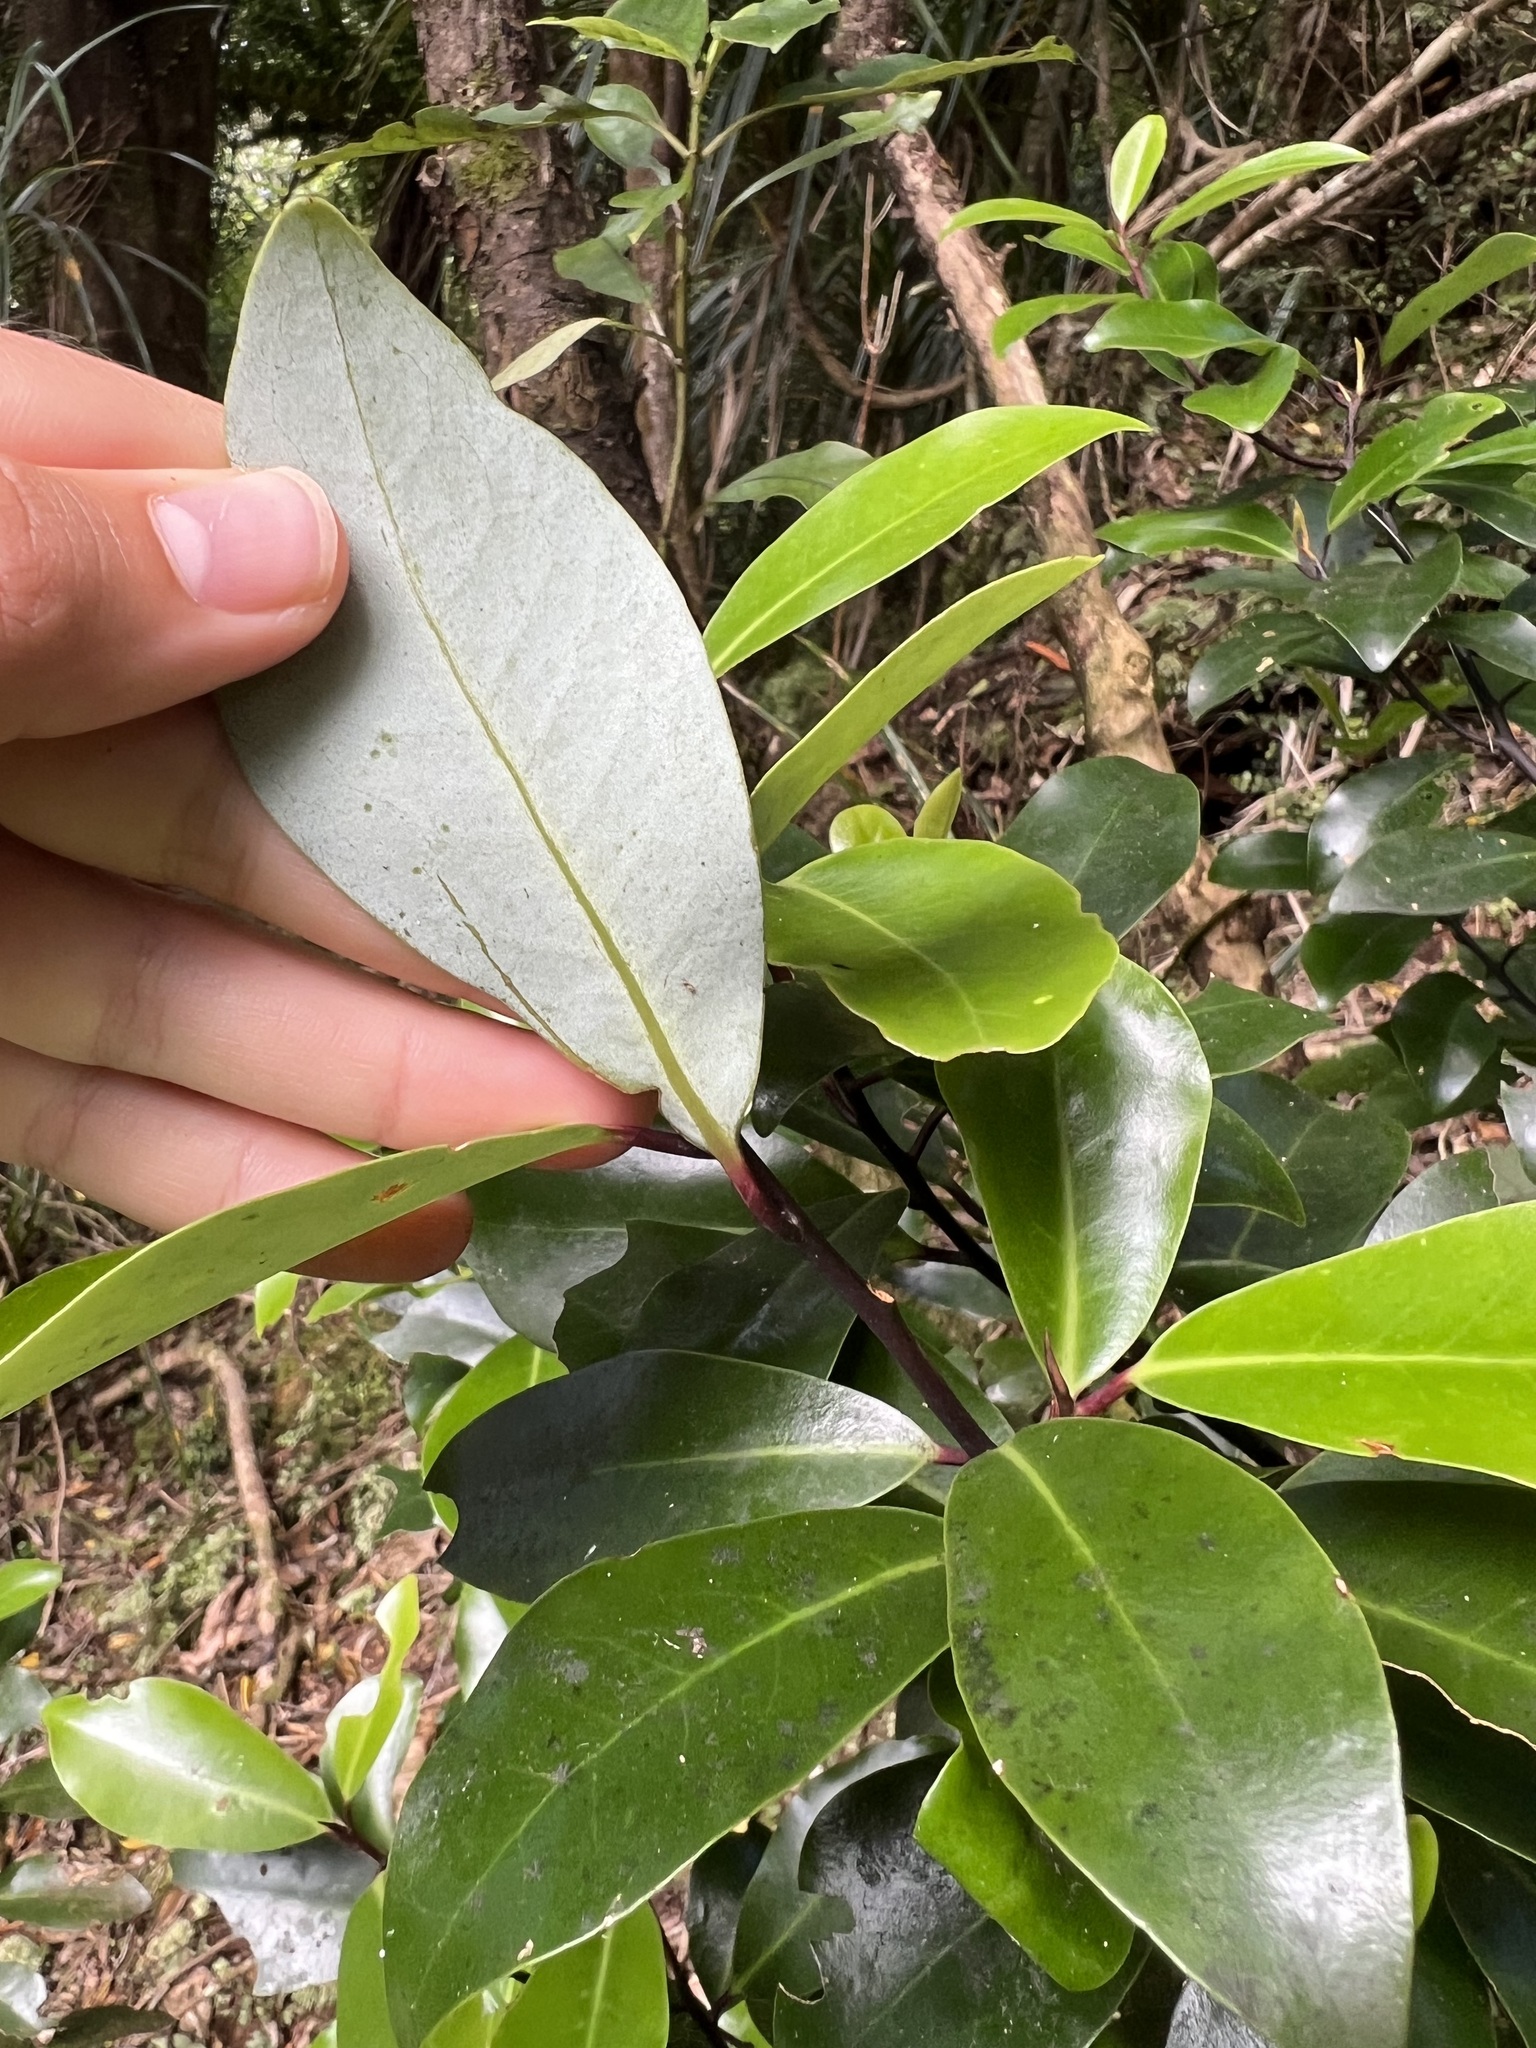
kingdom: Plantae
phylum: Tracheophyta
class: Magnoliopsida
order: Canellales
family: Winteraceae
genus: Pseudowintera
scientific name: Pseudowintera axillaris
